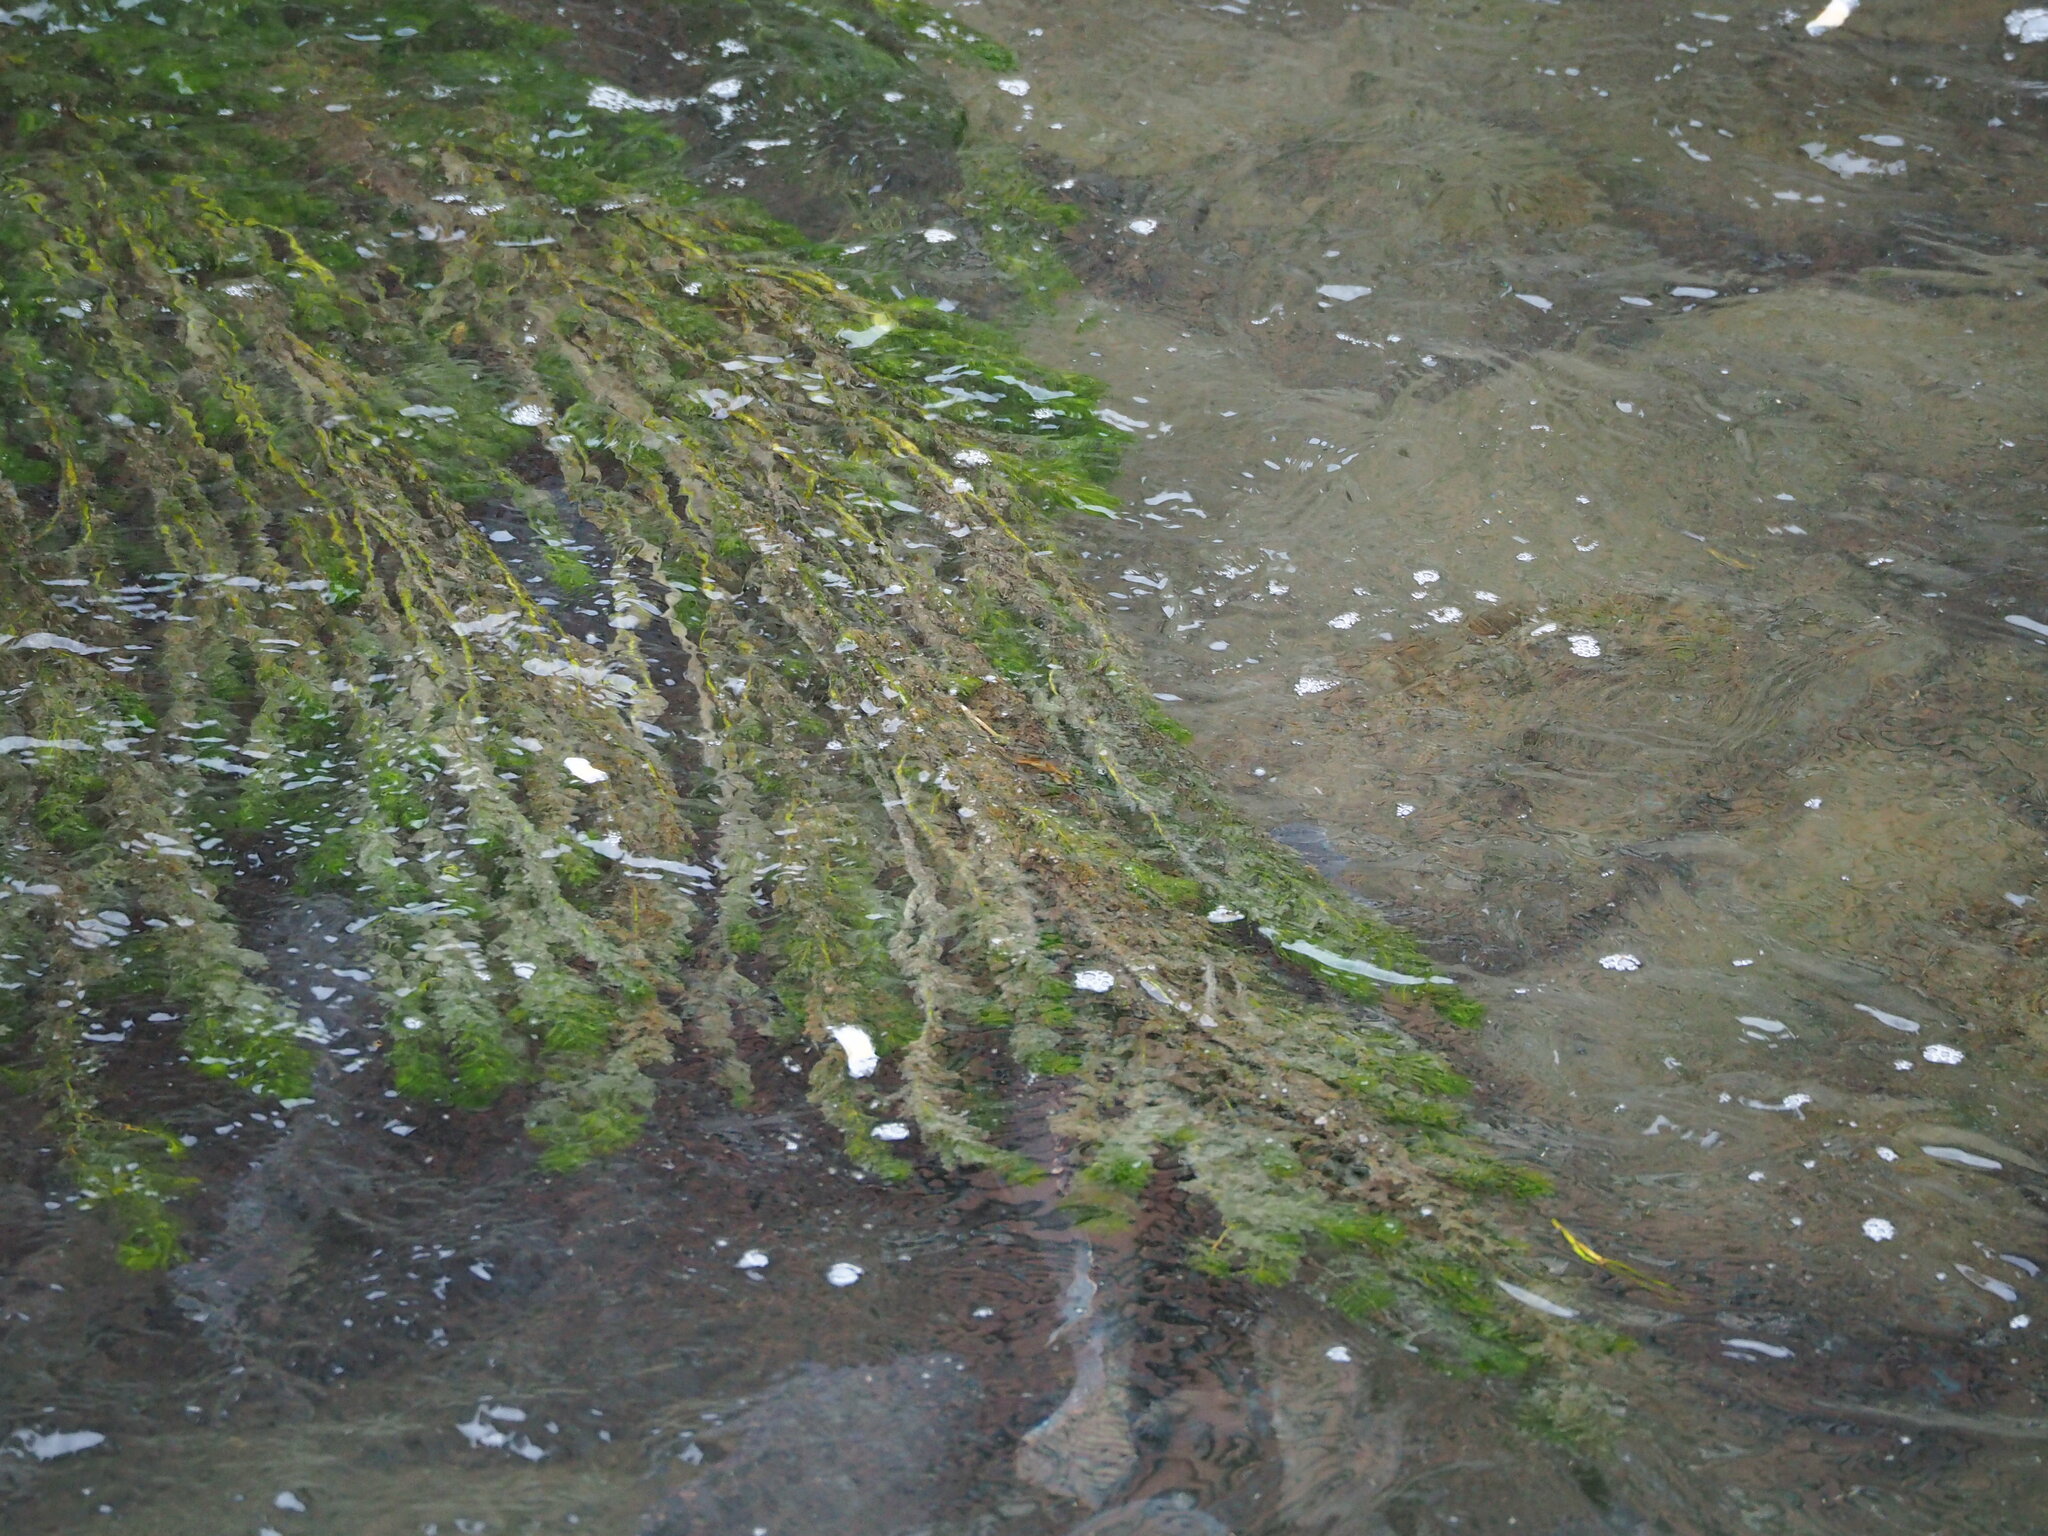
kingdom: Plantae
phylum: Tracheophyta
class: Magnoliopsida
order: Saxifragales
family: Haloragaceae
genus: Myriophyllum
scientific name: Myriophyllum spicatum
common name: Spiked water-milfoil
